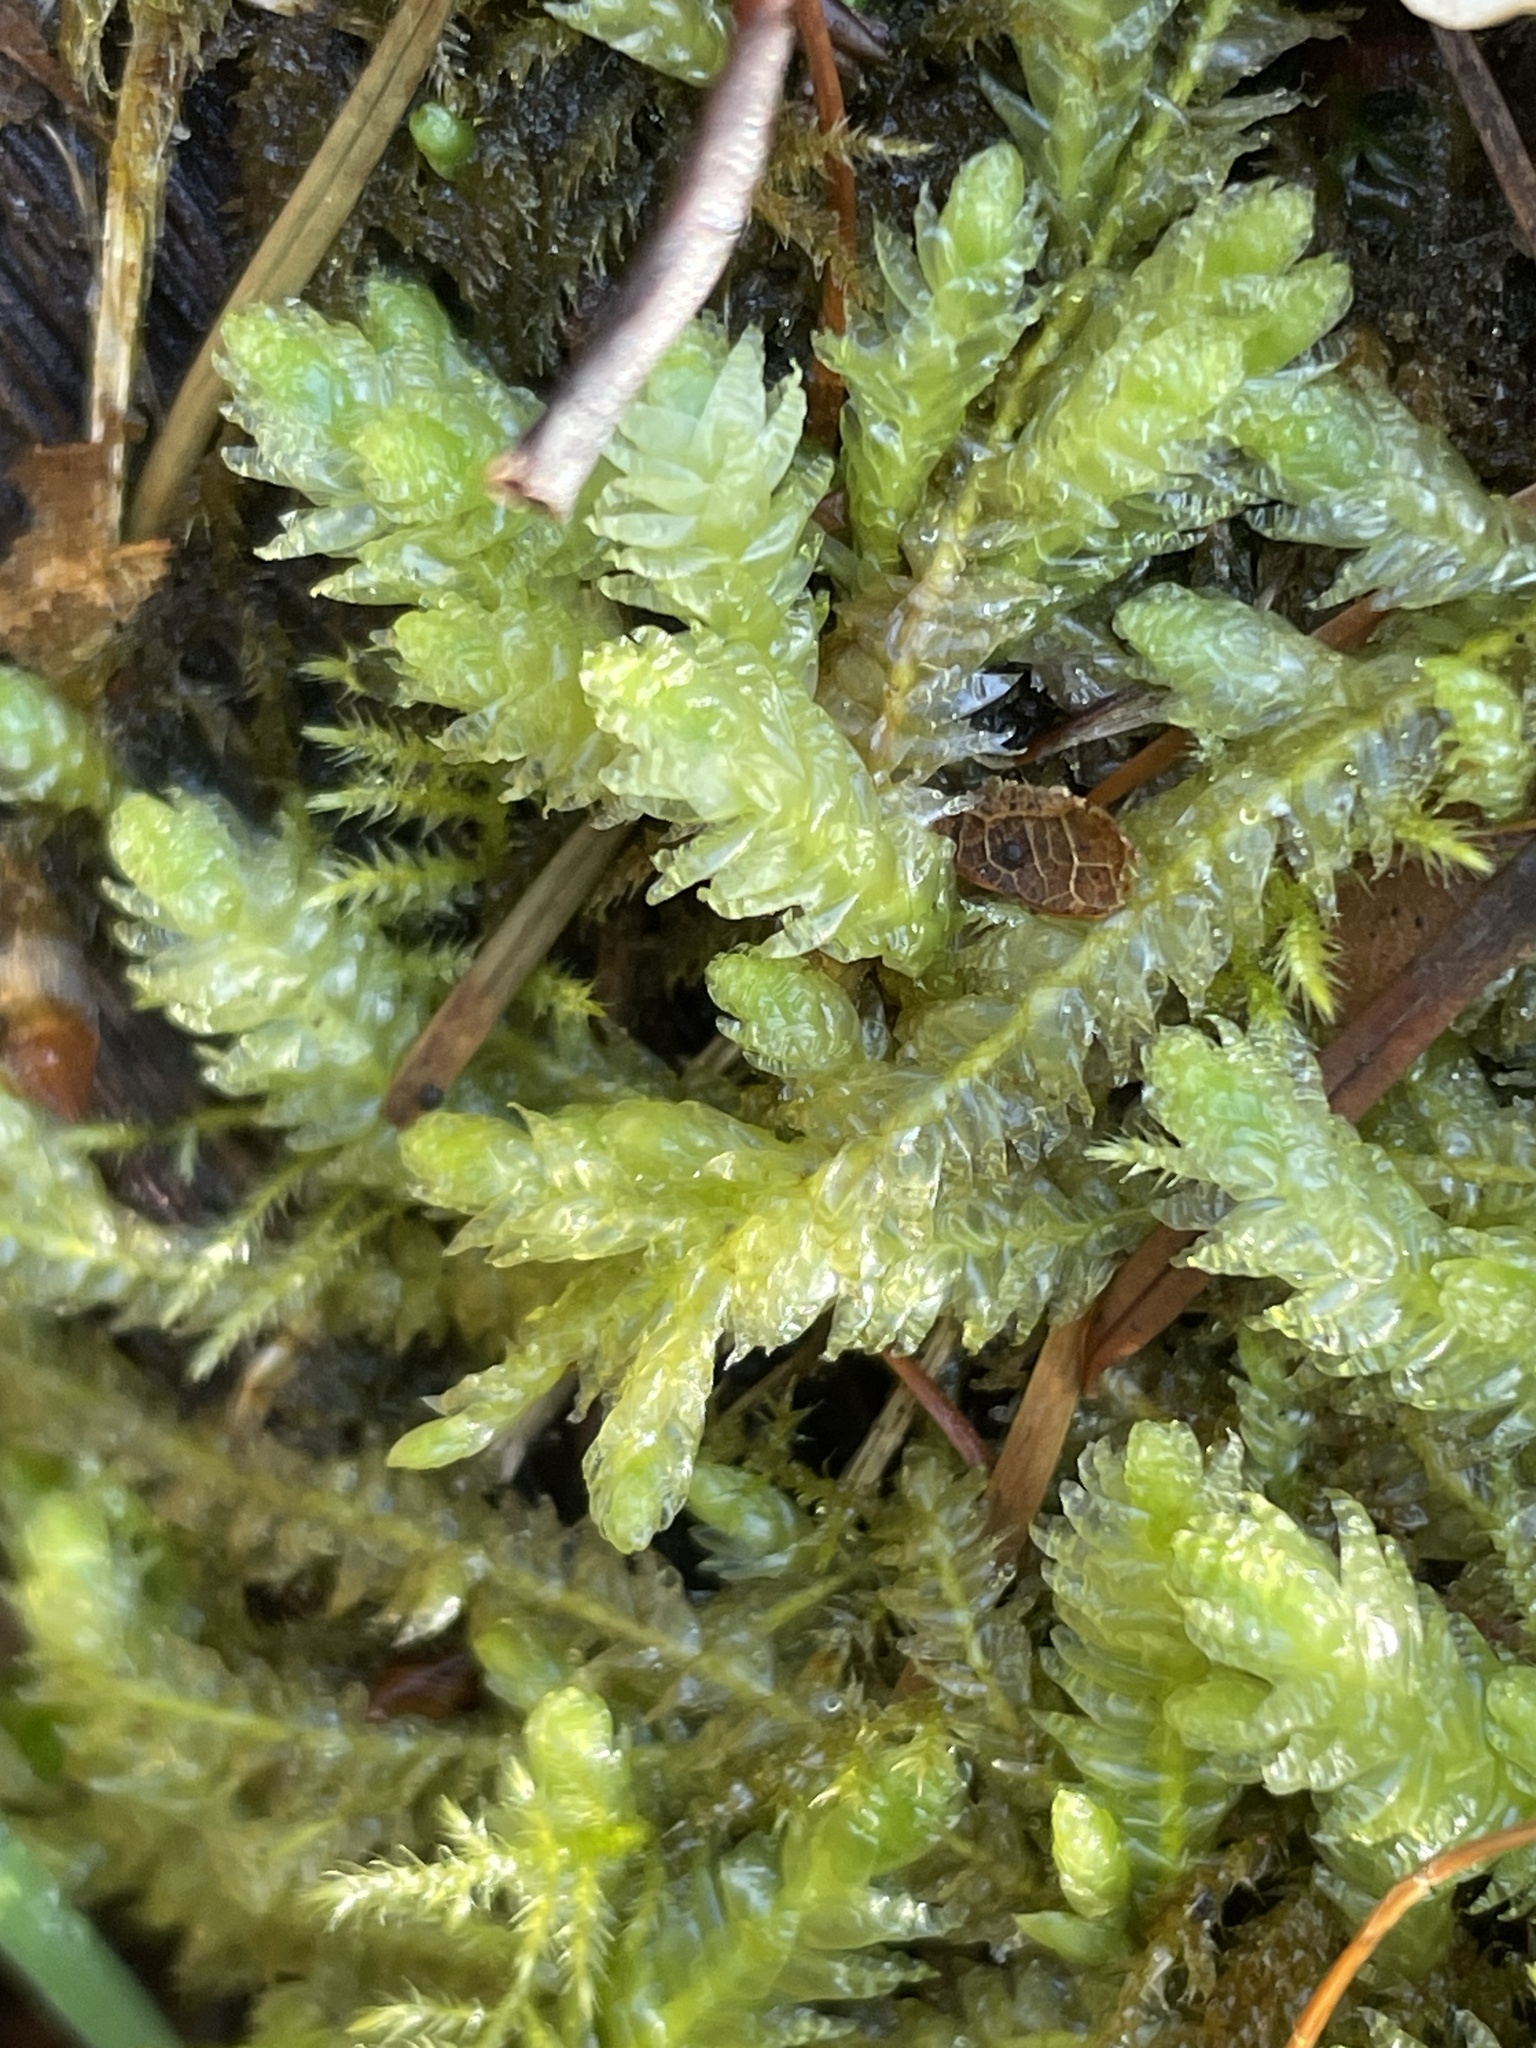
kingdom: Plantae
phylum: Bryophyta
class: Bryopsida
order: Hypnales
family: Plagiotheciaceae
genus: Plagiothecium
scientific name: Plagiothecium undulatum
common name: Waved silk-moss
